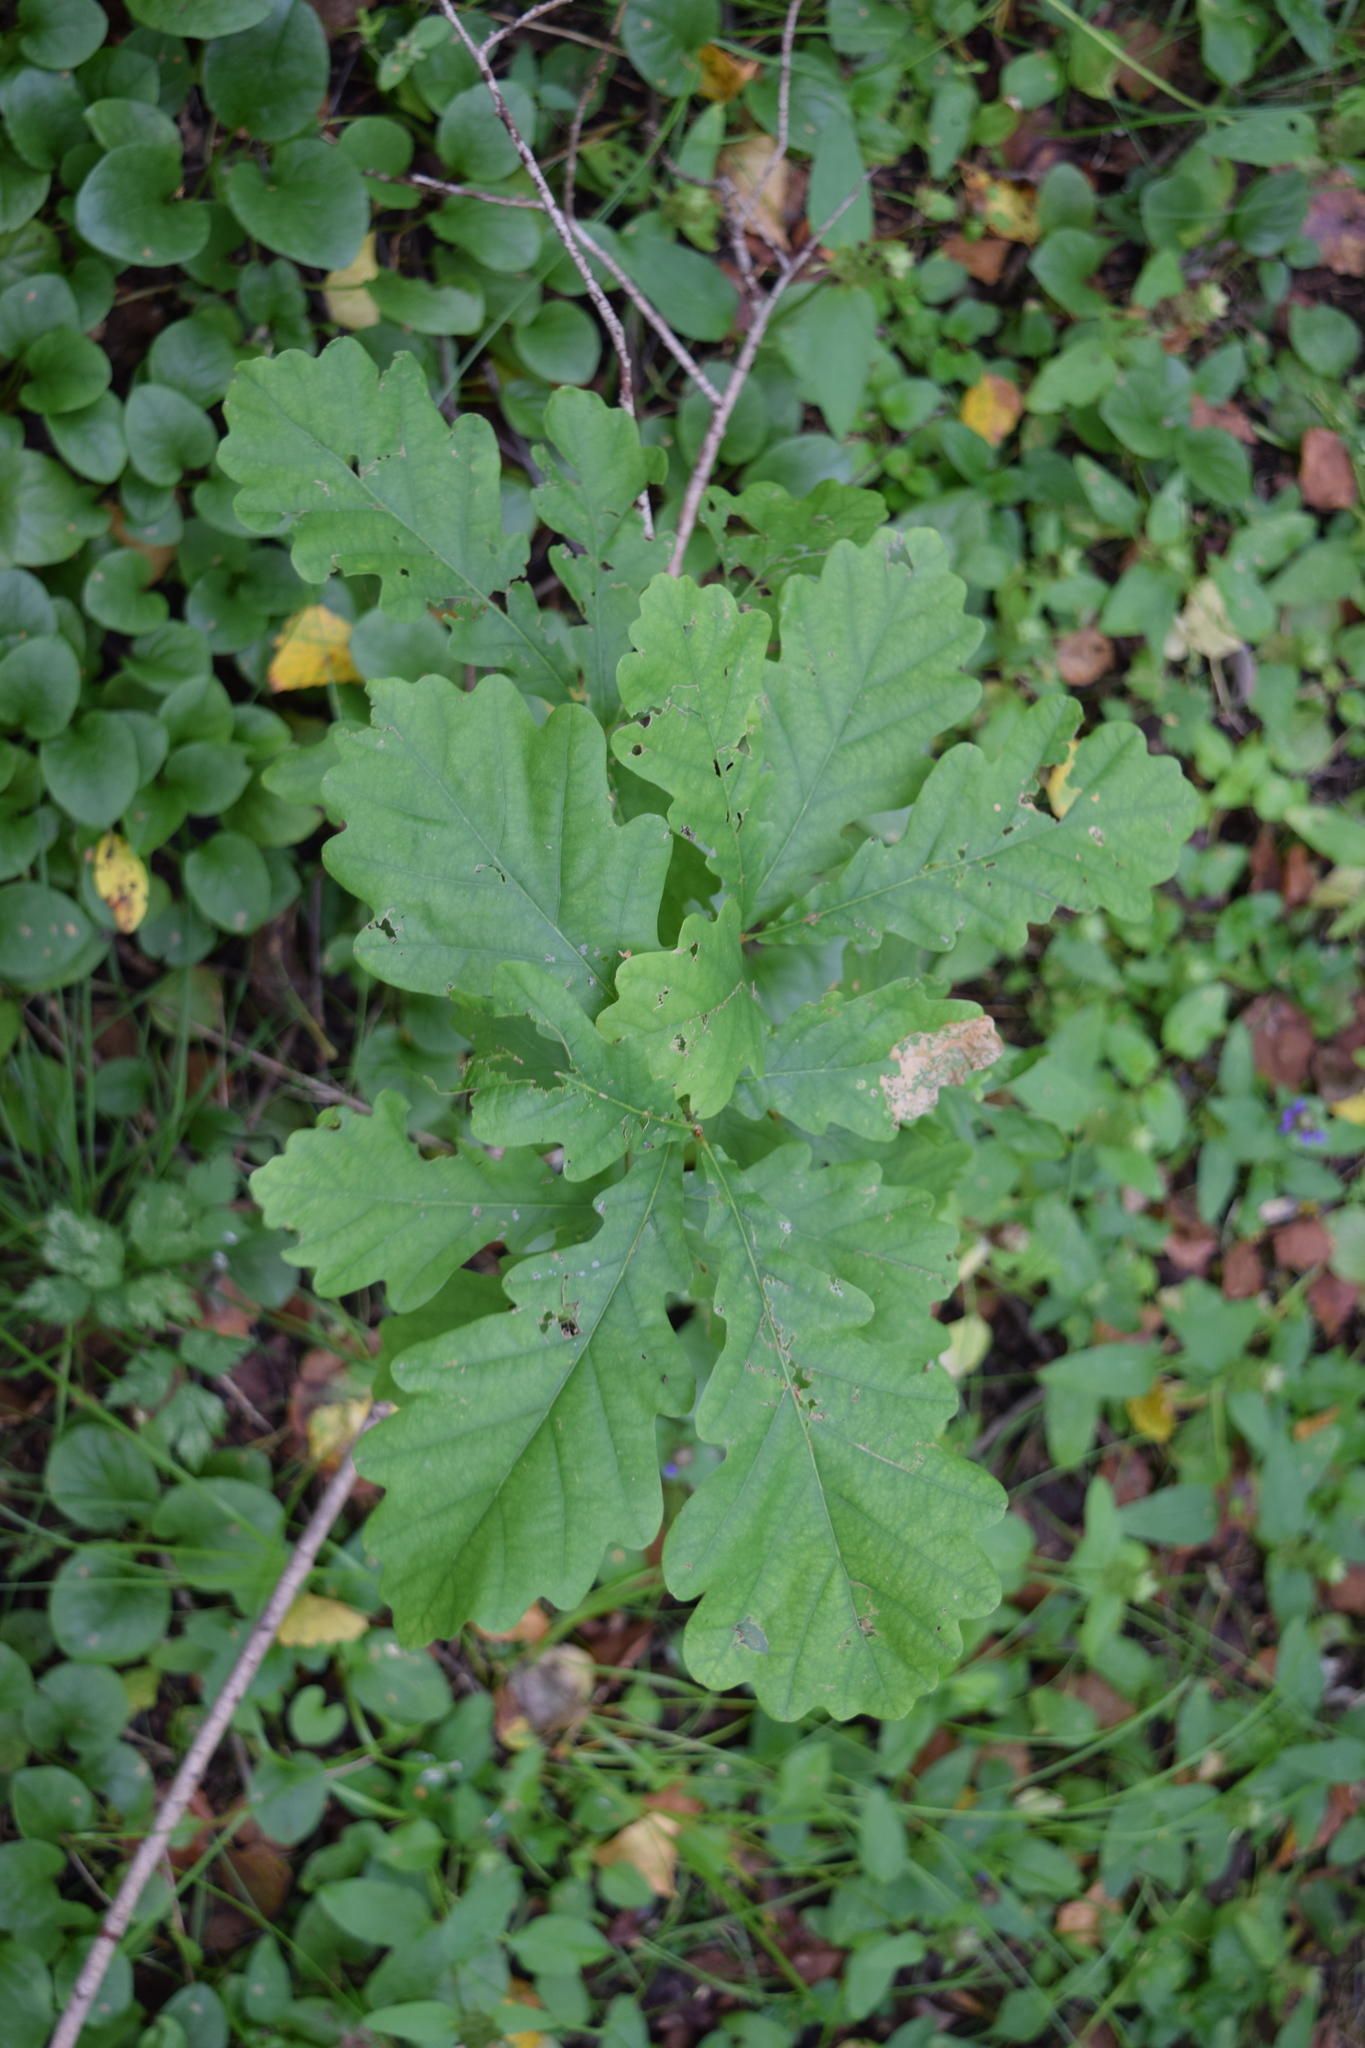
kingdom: Plantae
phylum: Tracheophyta
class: Magnoliopsida
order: Fagales
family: Fagaceae
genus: Quercus
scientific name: Quercus robur
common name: Pedunculate oak
